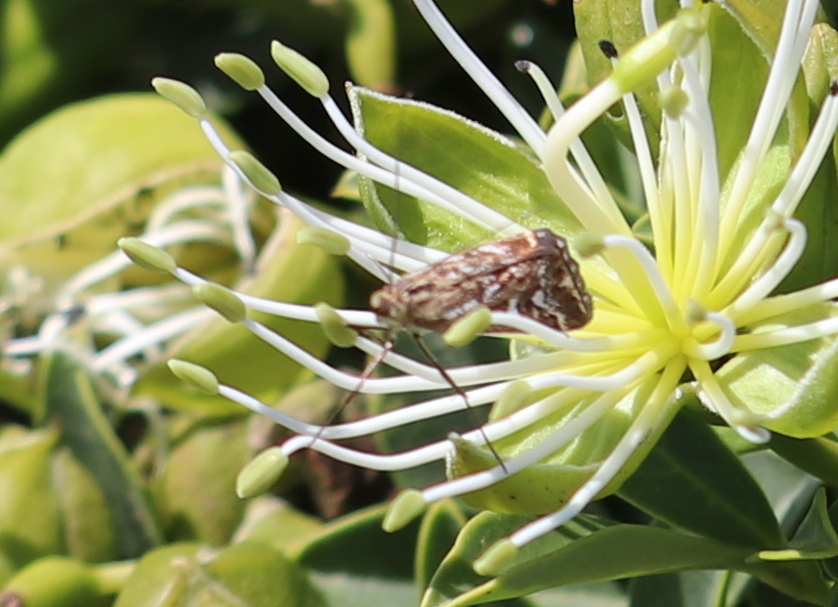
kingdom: Animalia
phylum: Arthropoda
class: Insecta
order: Lepidoptera
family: Crambidae
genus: Loxostege
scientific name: Loxostege frustalis
